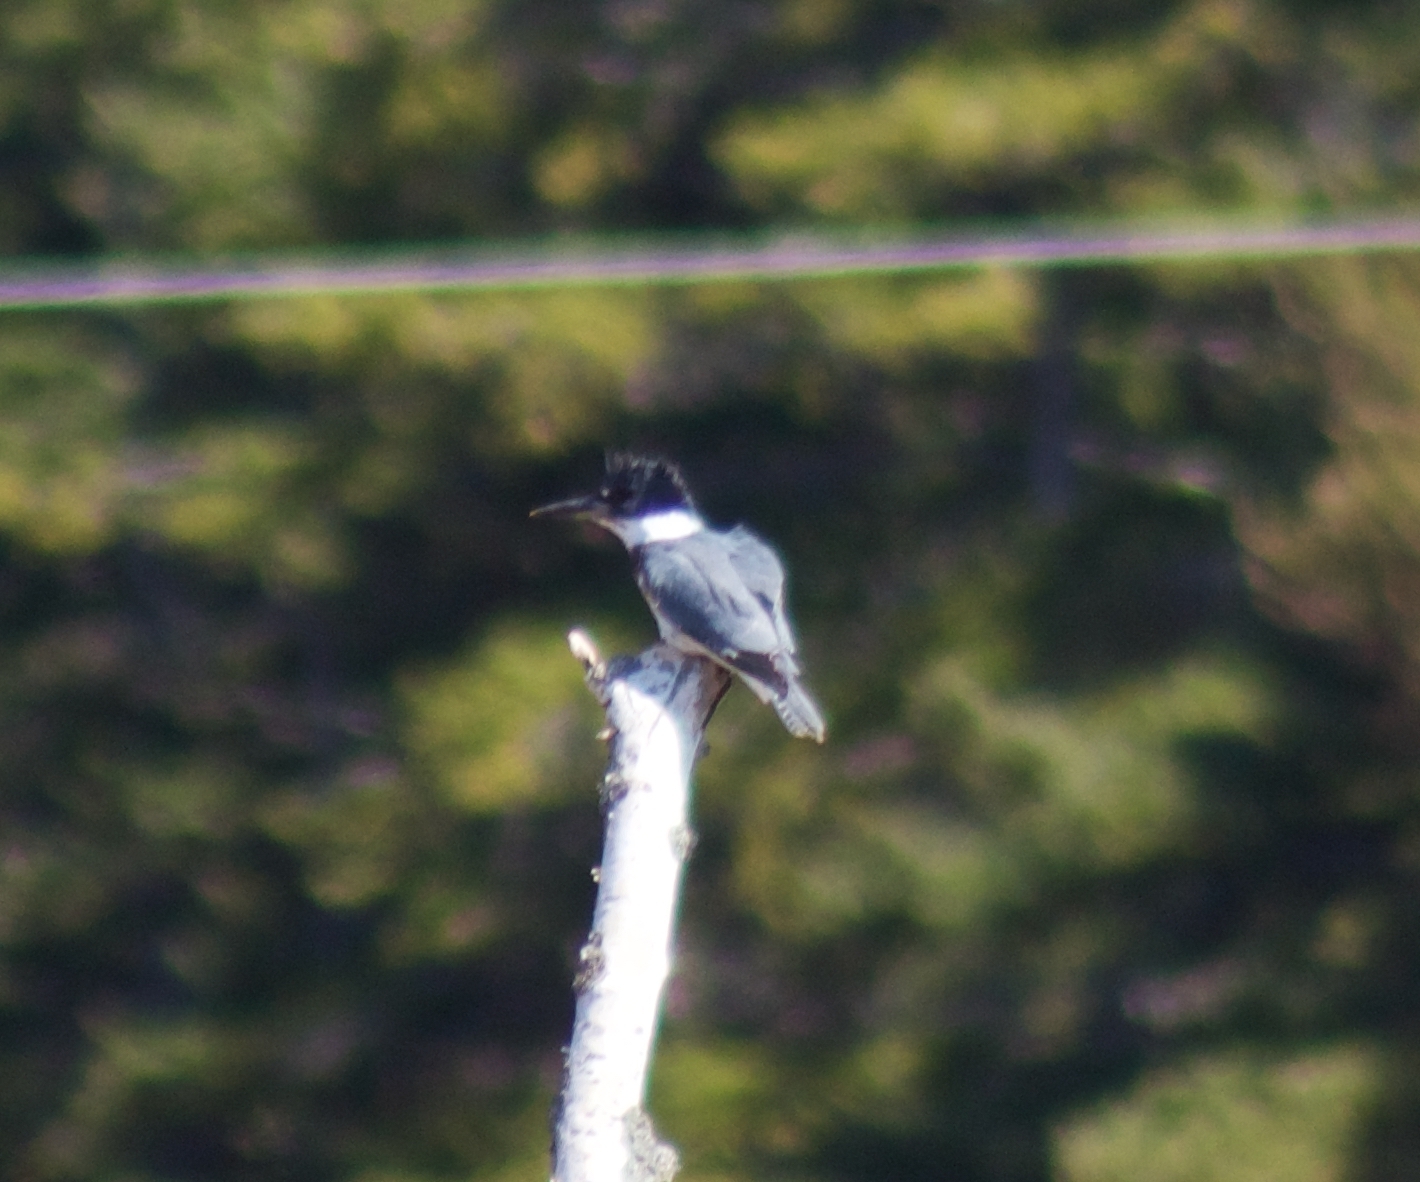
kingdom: Animalia
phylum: Chordata
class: Aves
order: Coraciiformes
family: Alcedinidae
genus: Megaceryle
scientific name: Megaceryle alcyon
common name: Belted kingfisher
